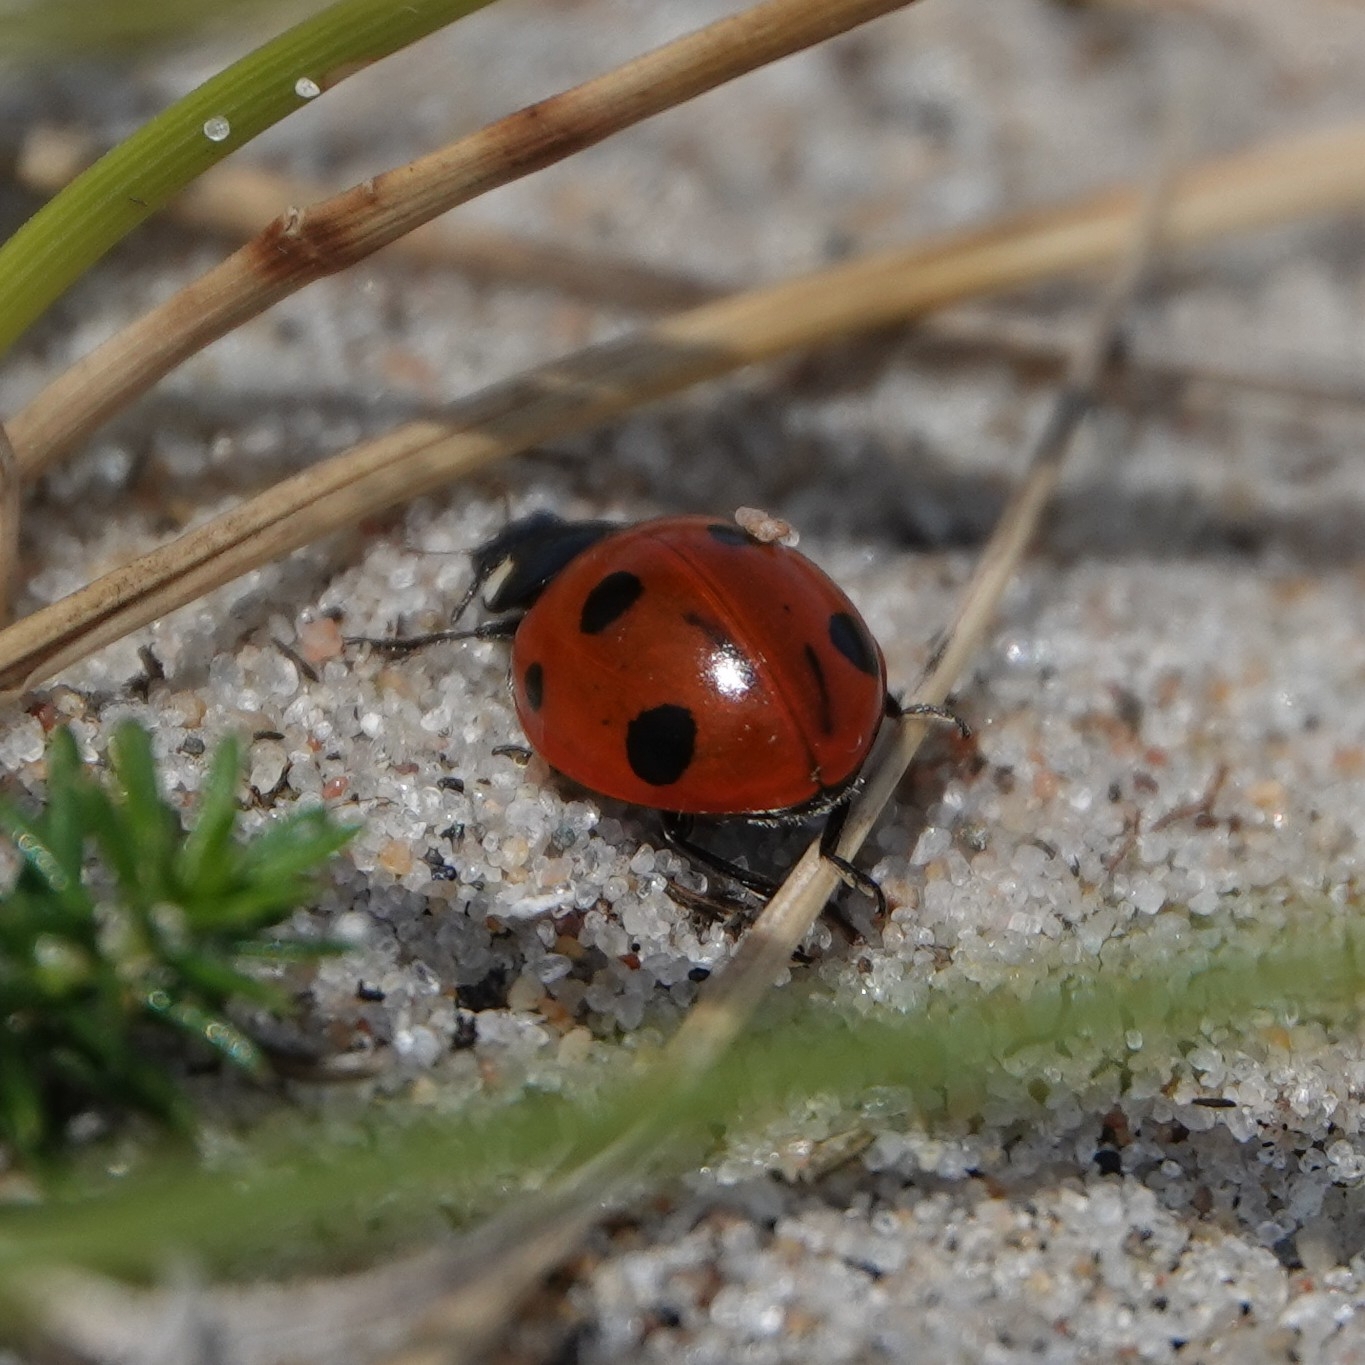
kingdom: Animalia
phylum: Arthropoda
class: Insecta
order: Coleoptera
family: Coccinellidae
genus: Coccinella
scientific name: Coccinella septempunctata
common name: Sevenspotted lady beetle
